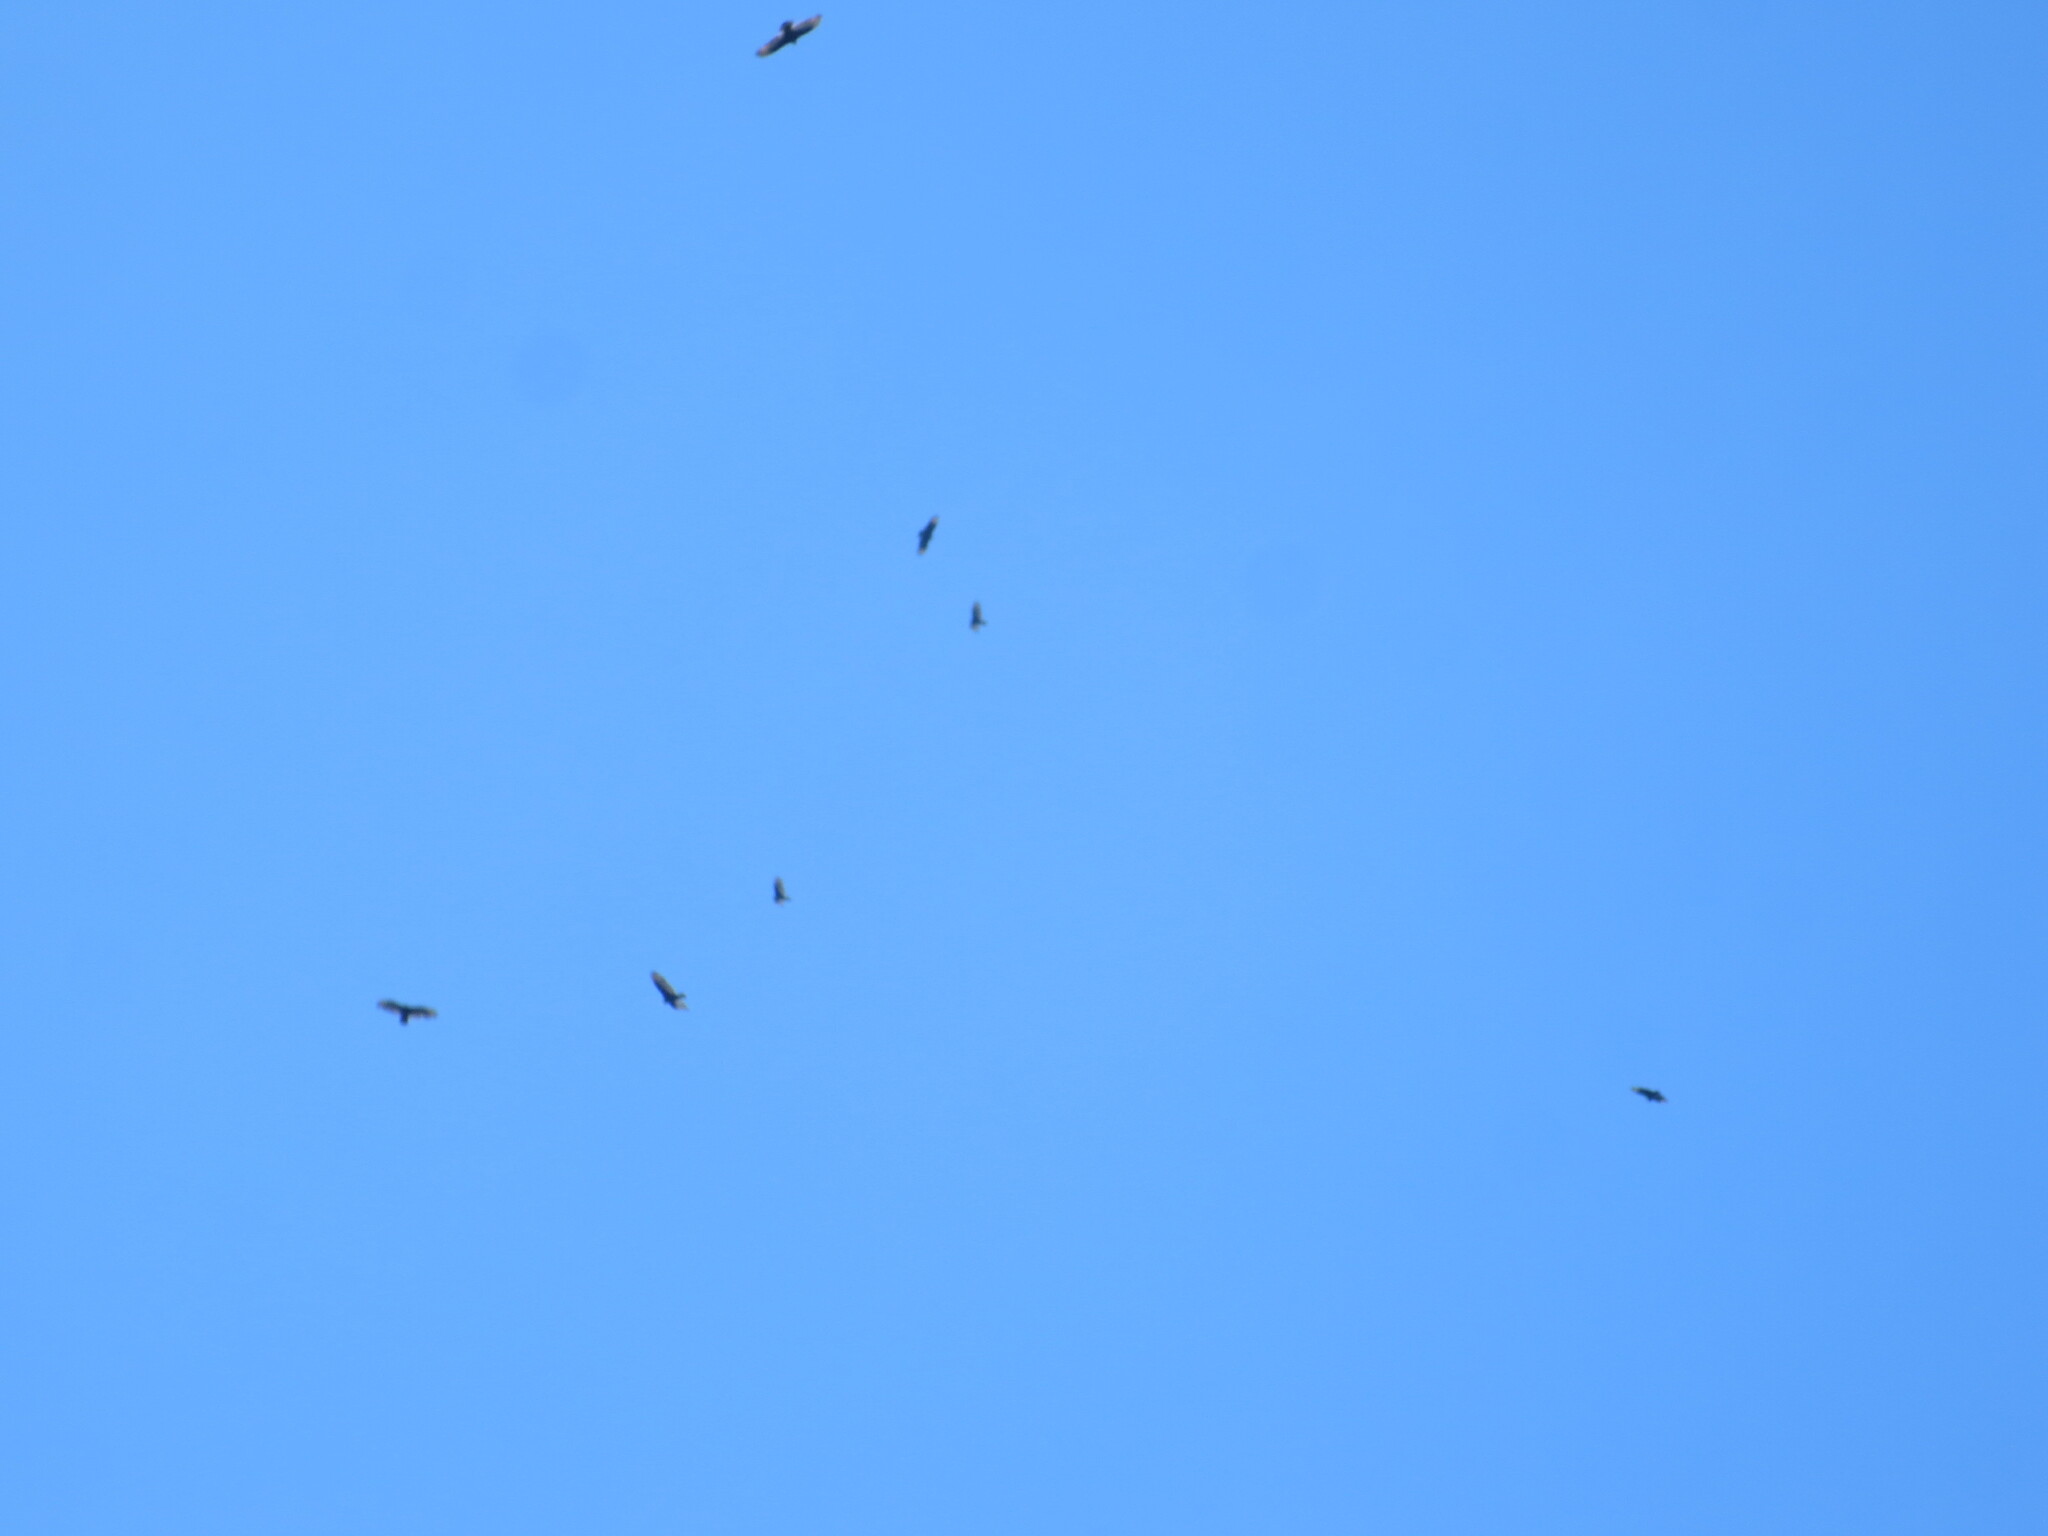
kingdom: Animalia
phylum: Chordata
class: Aves
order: Accipitriformes
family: Cathartidae
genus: Cathartes
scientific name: Cathartes aura
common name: Turkey vulture
